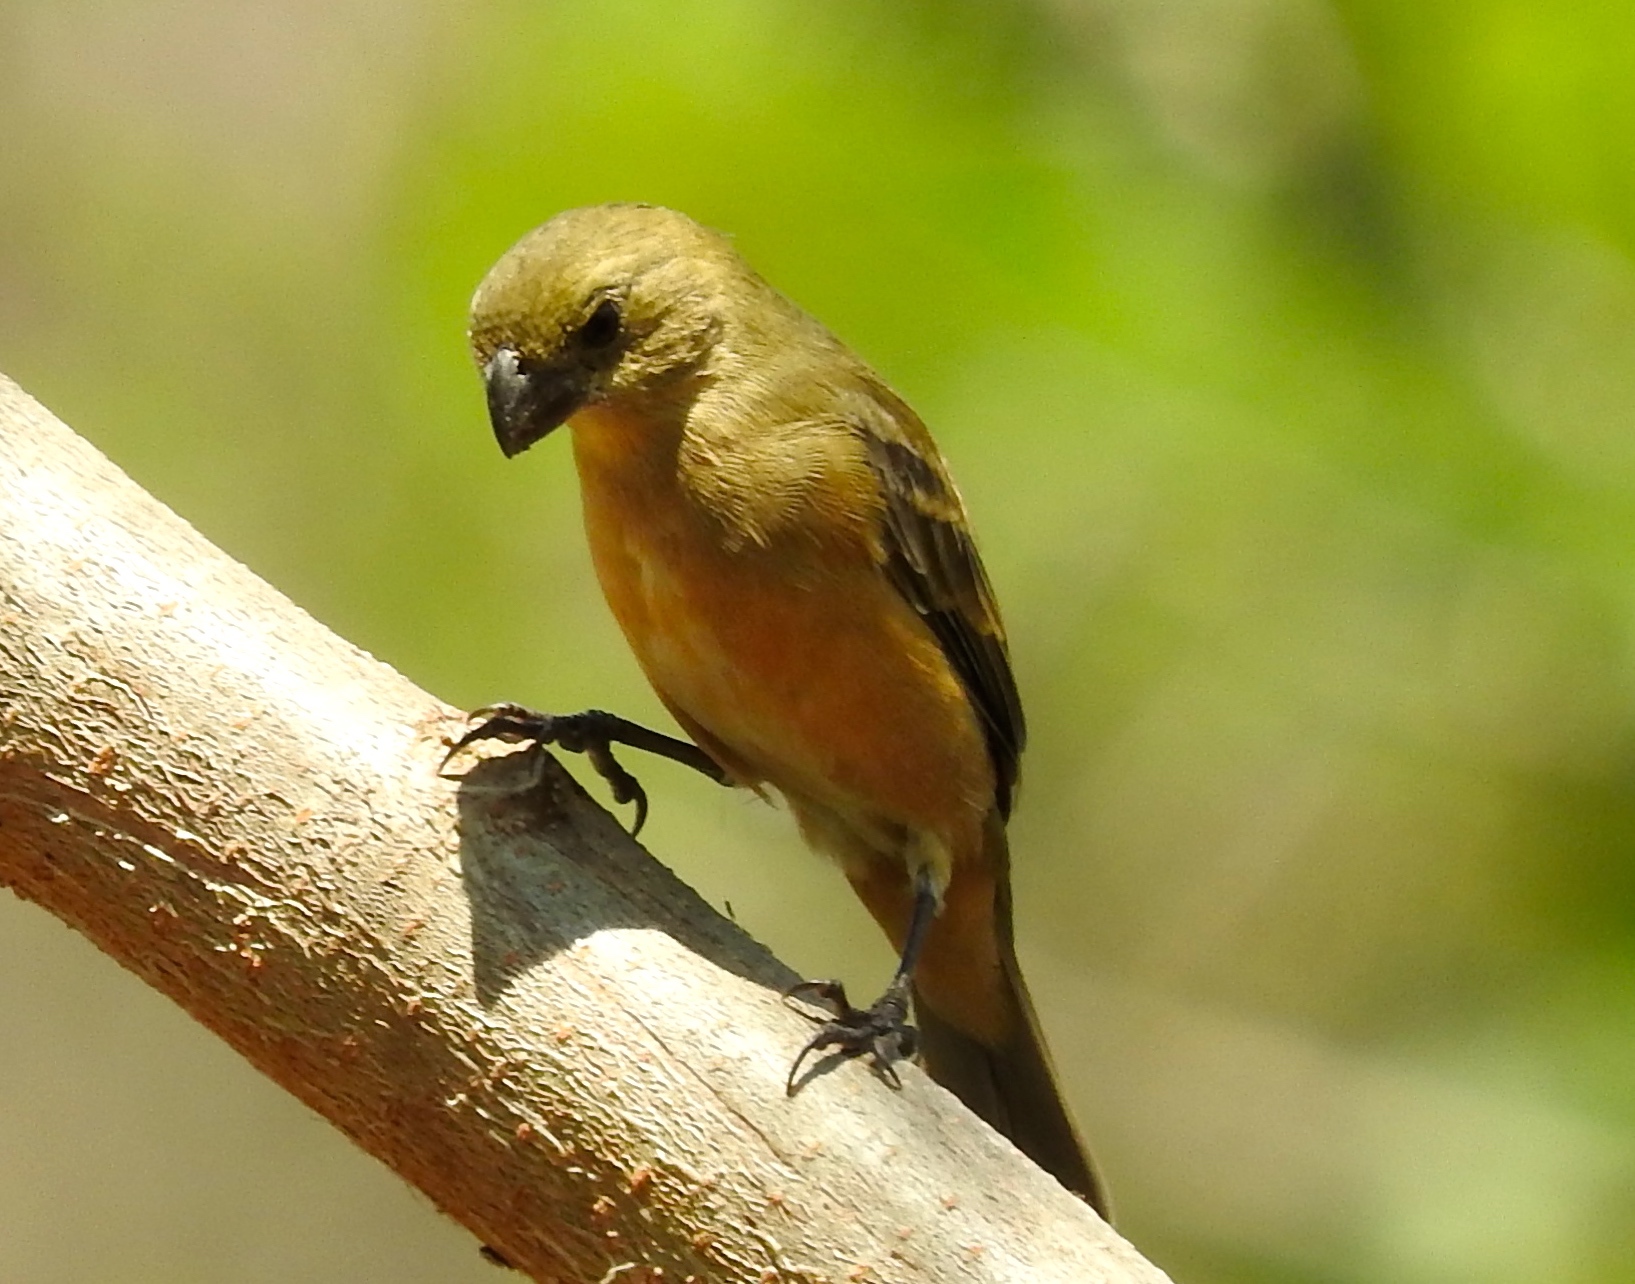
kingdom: Animalia
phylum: Chordata
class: Aves
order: Passeriformes
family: Thraupidae
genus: Sporophila
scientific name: Sporophila torqueola
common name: White-collared seedeater
